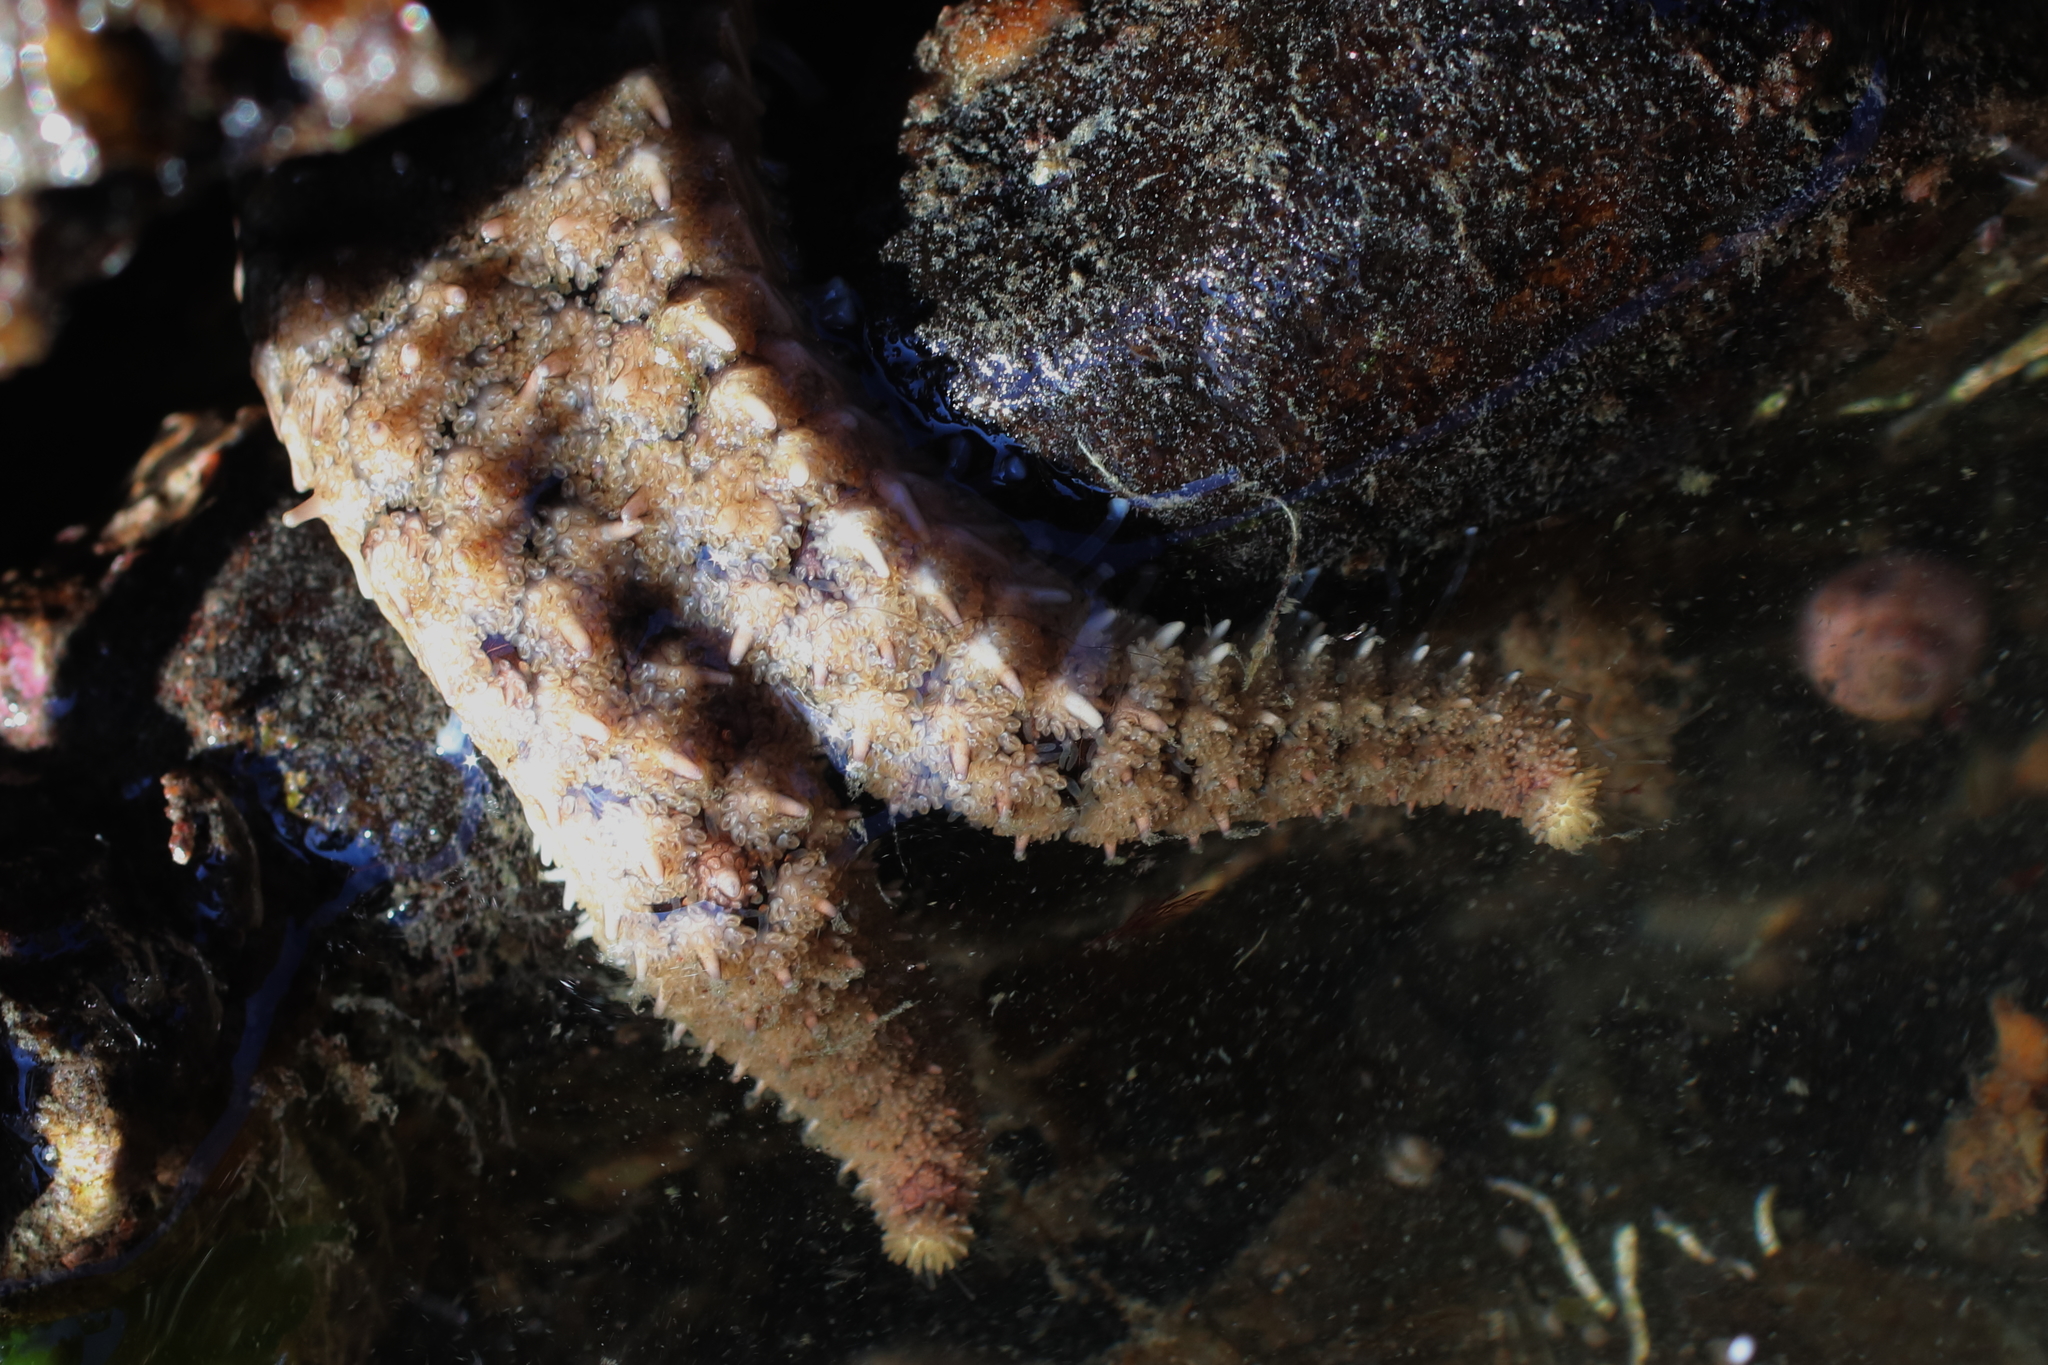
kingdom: Animalia
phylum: Echinodermata
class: Asteroidea
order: Forcipulatida
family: Asteriidae
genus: Stylasterias
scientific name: Stylasterias forreri
